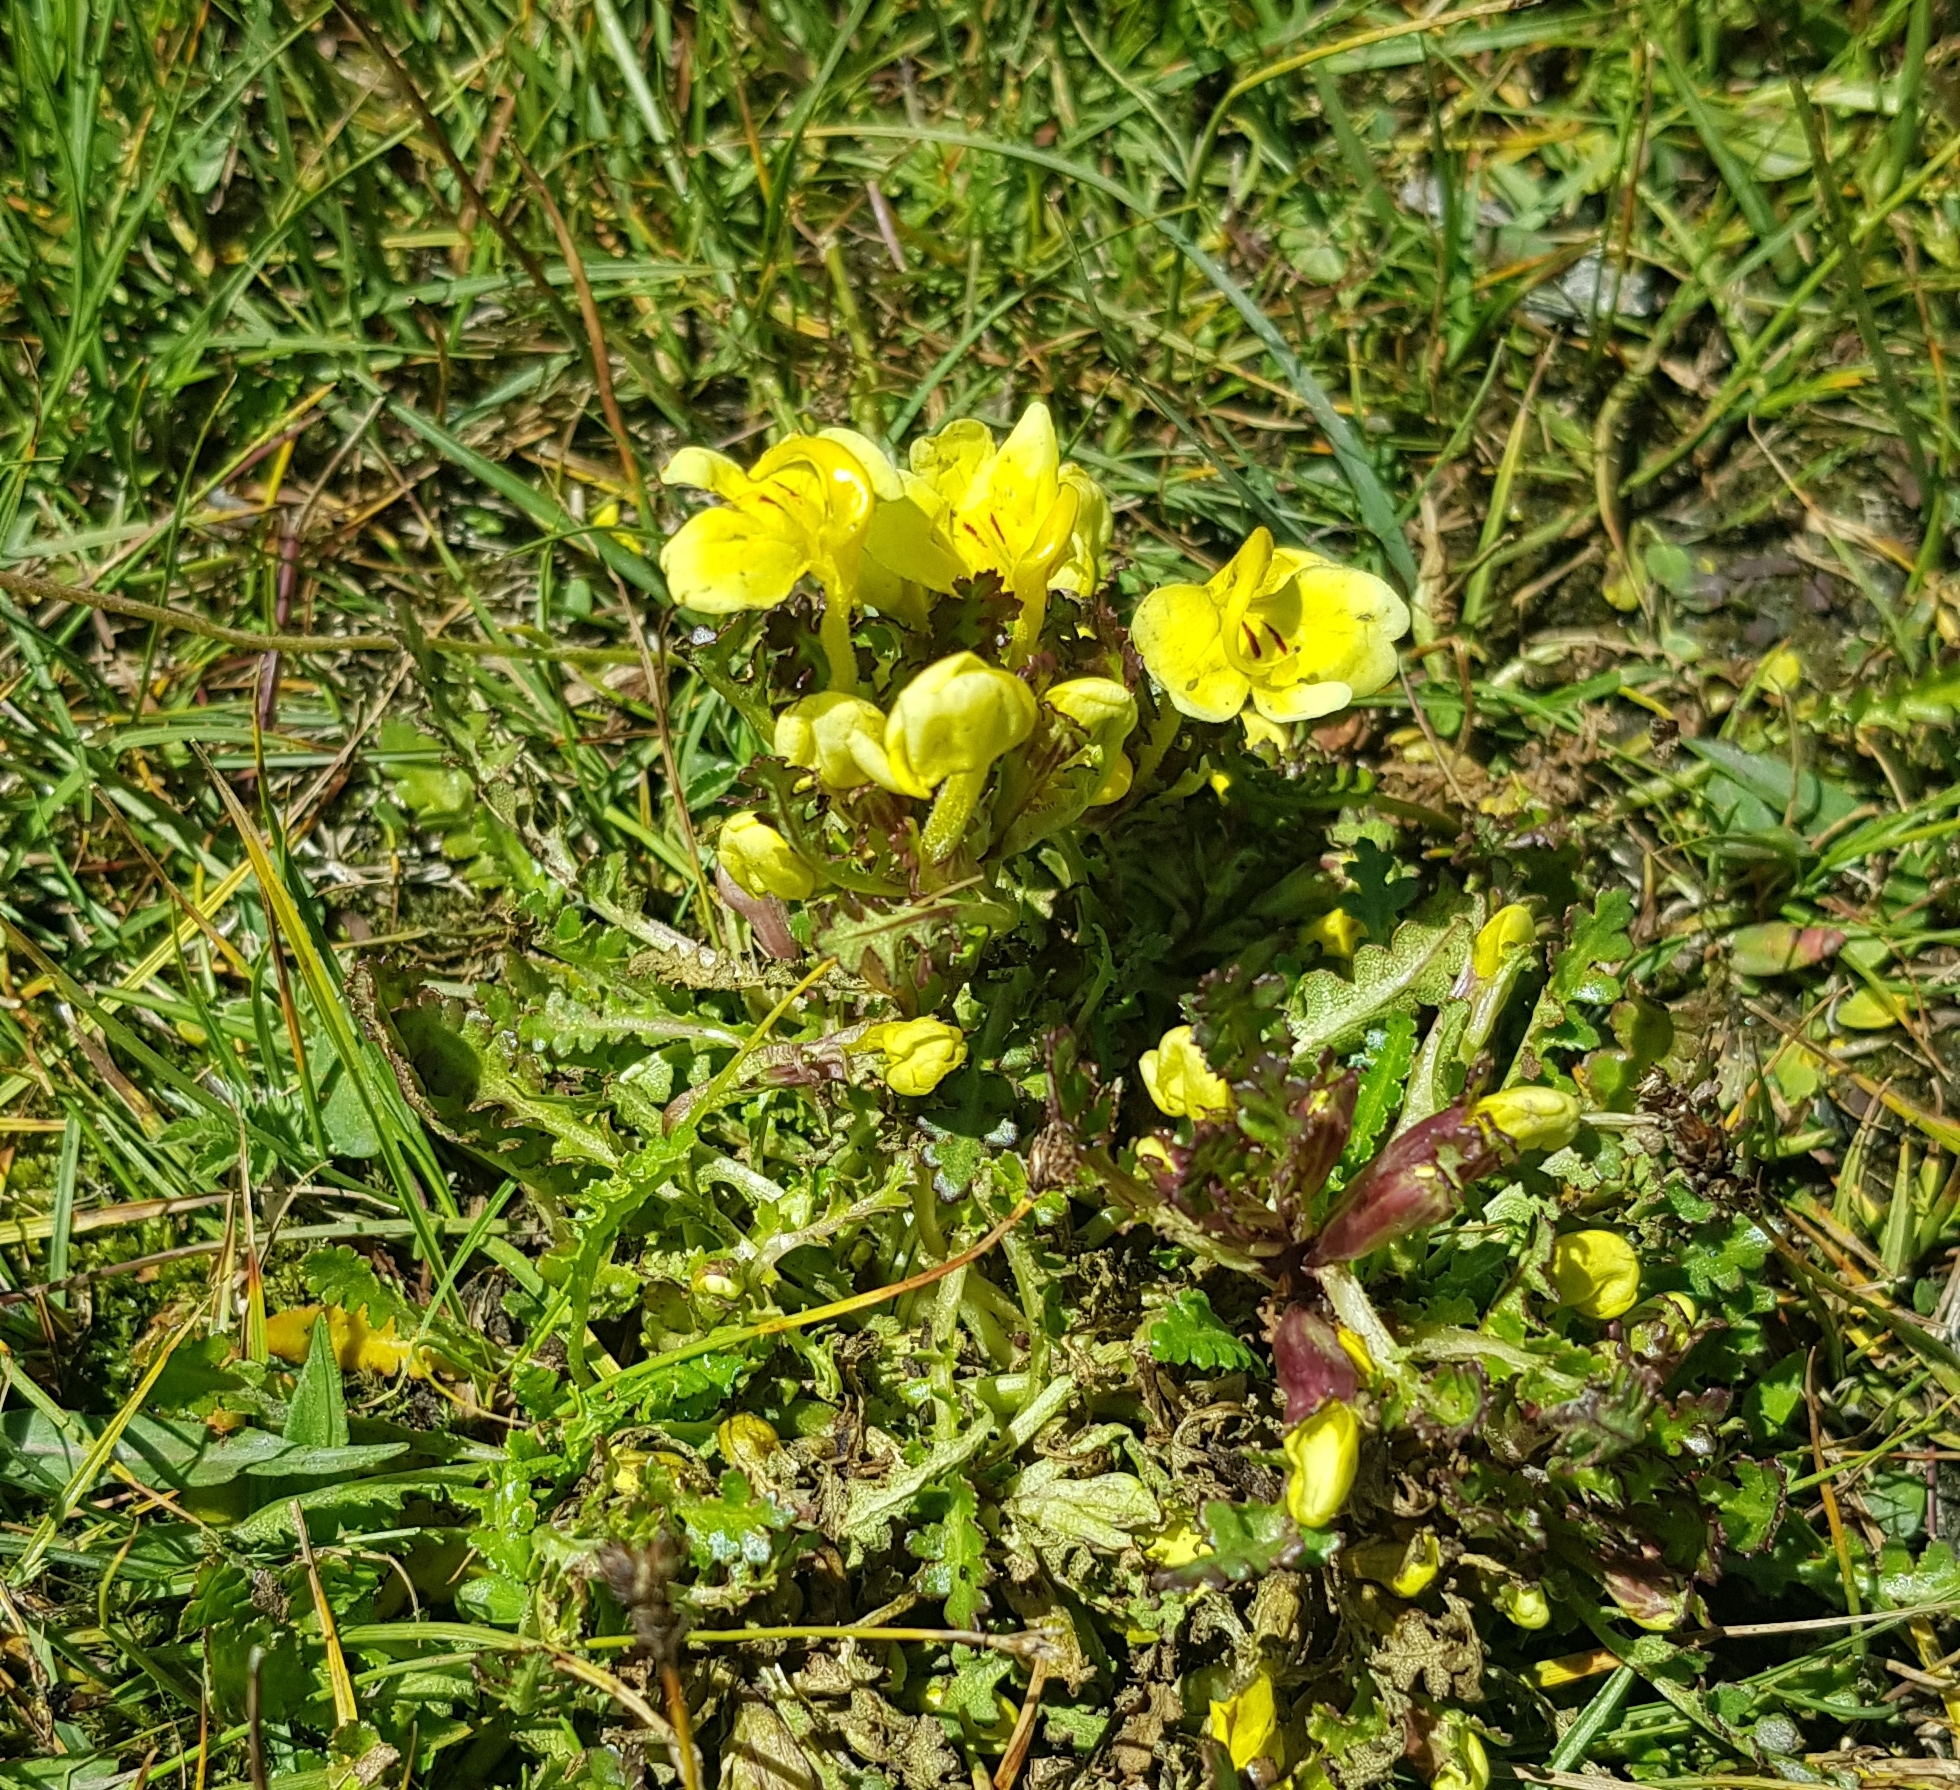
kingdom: Plantae
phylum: Tracheophyta
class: Magnoliopsida
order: Lamiales
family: Orobanchaceae
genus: Pedicularis
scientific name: Pedicularis longiflora
